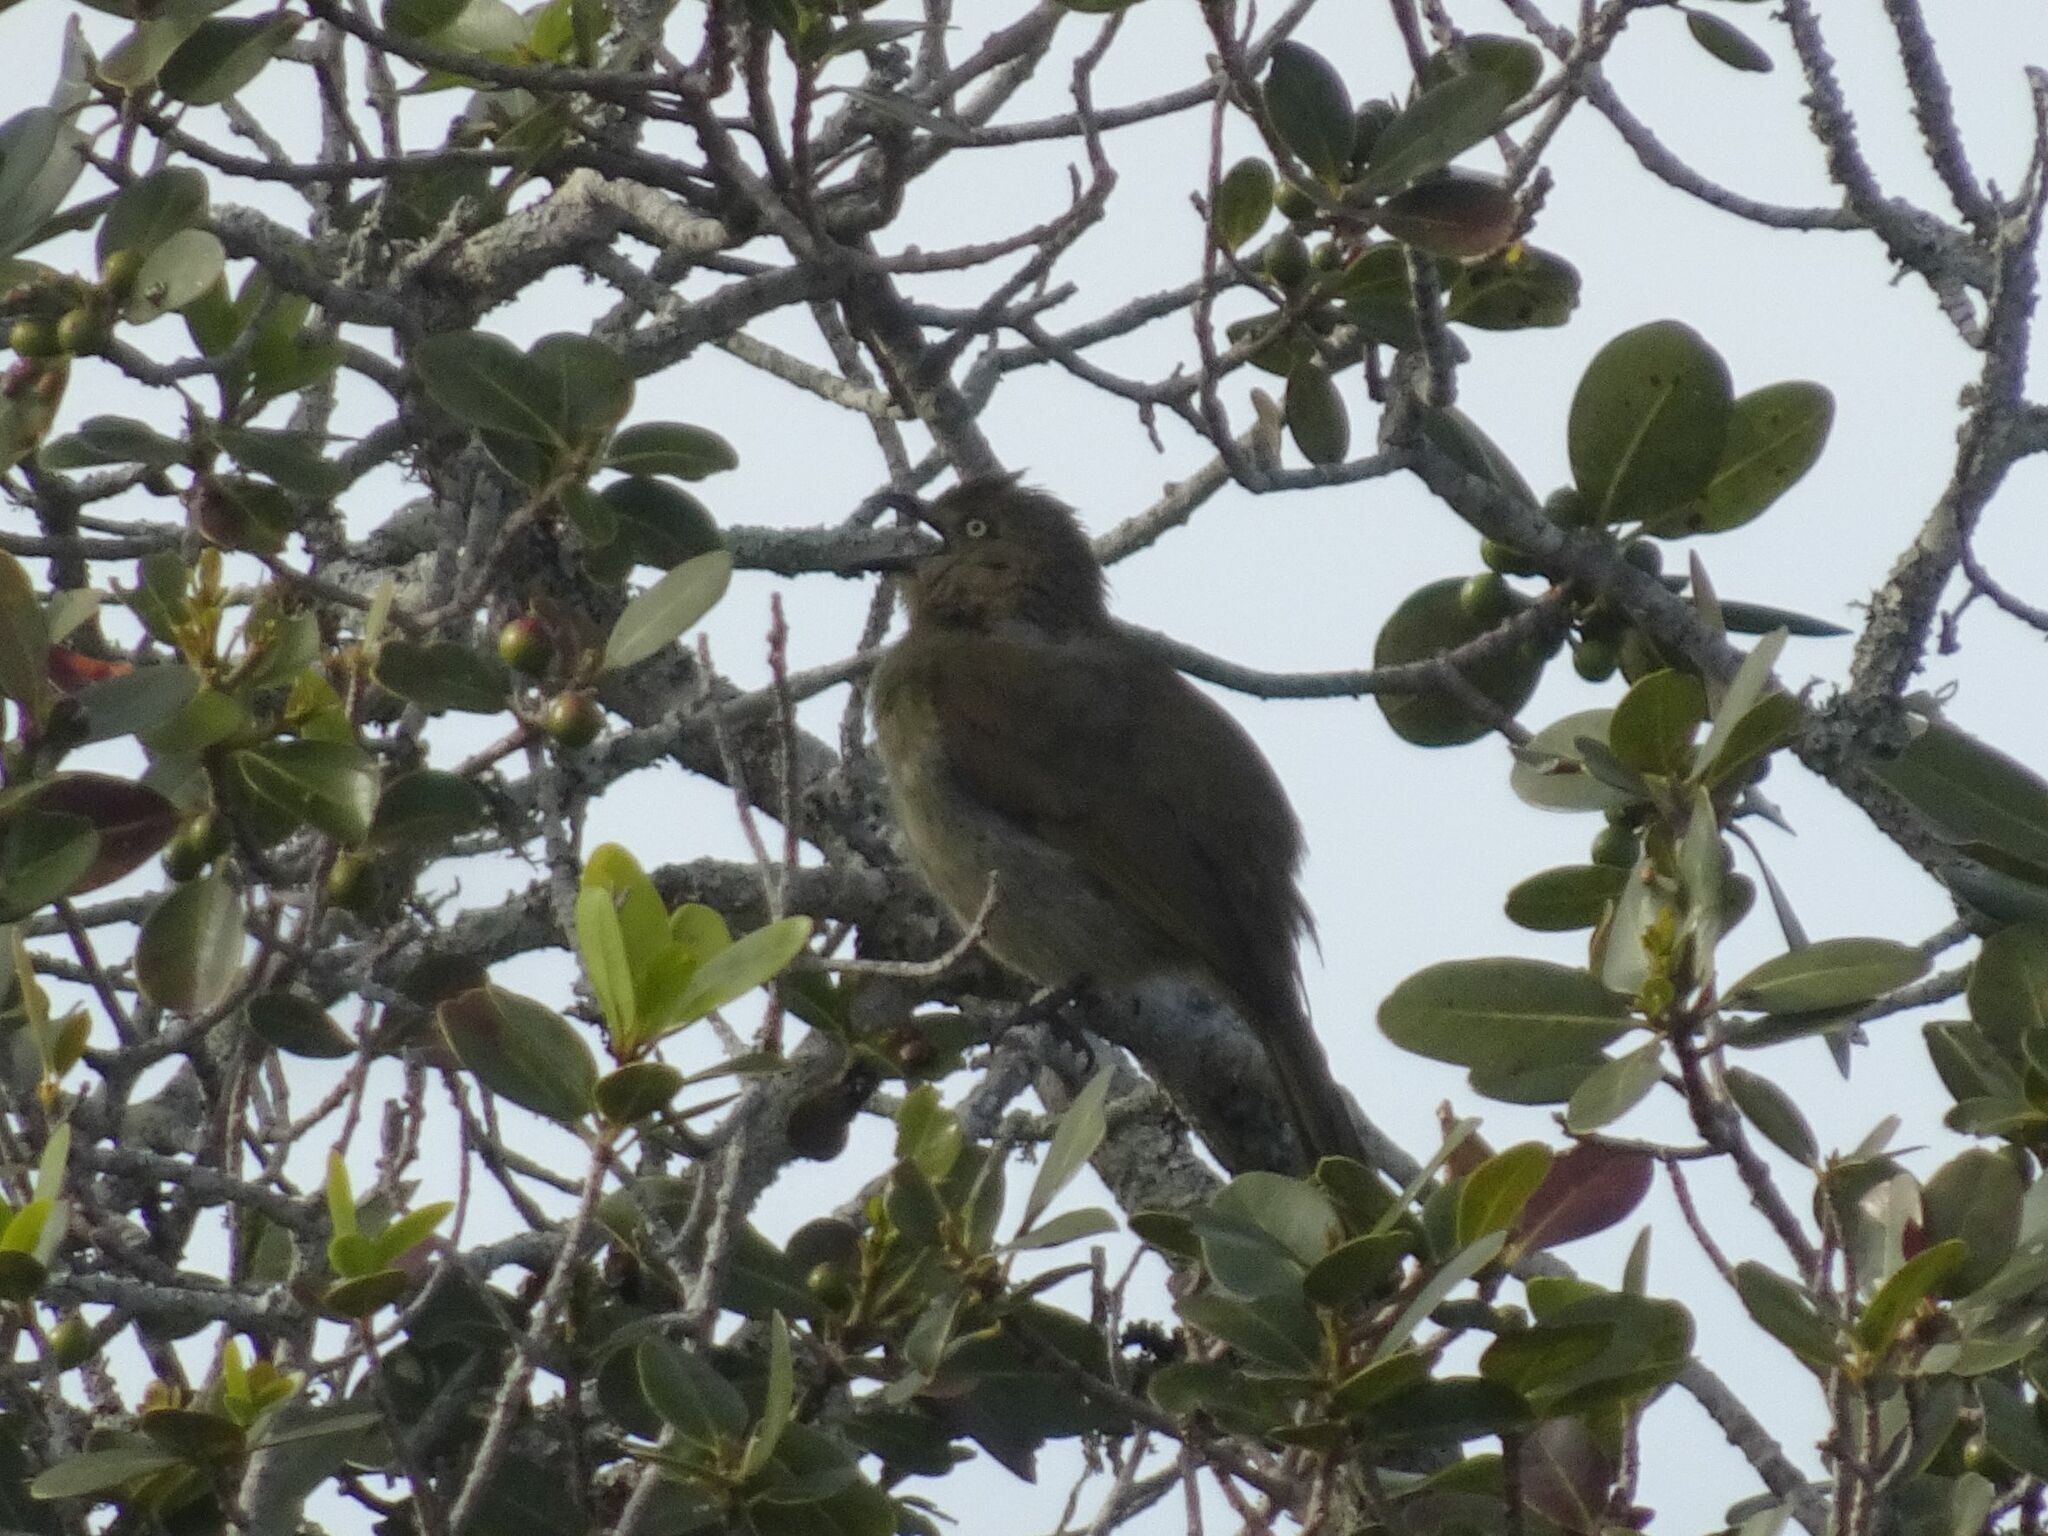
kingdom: Animalia
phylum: Chordata
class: Aves
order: Passeriformes
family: Pycnonotidae
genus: Andropadus
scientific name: Andropadus importunus
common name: Sombre greenbul
